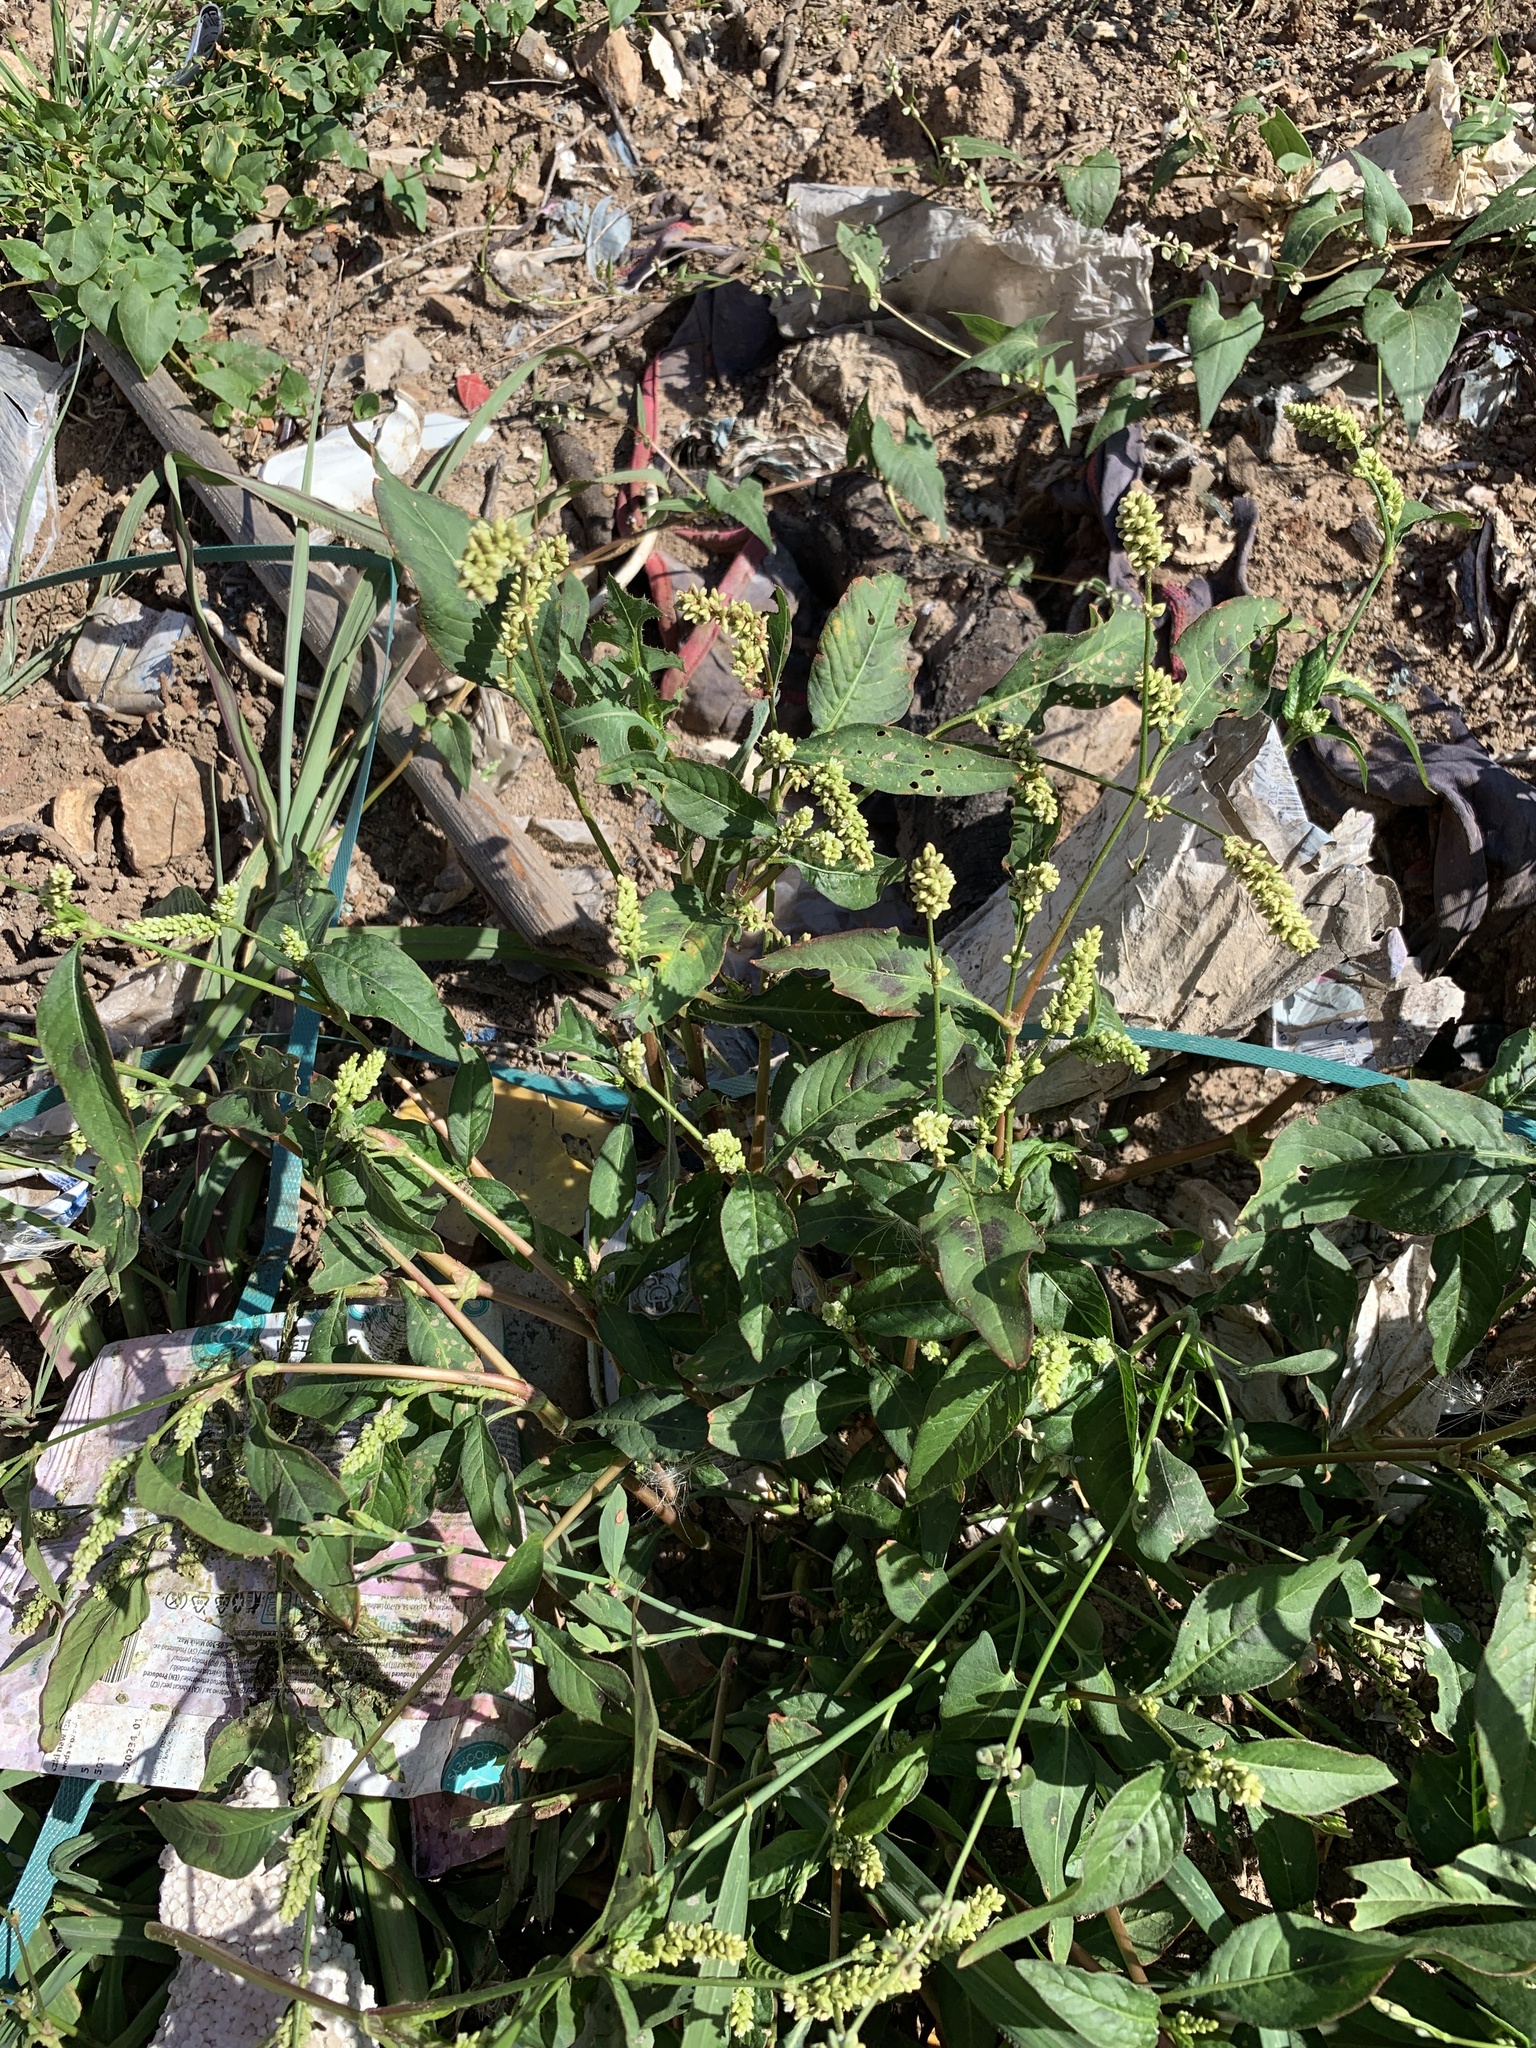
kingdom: Plantae
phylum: Tracheophyta
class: Magnoliopsida
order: Caryophyllales
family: Polygonaceae
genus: Persicaria
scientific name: Persicaria lapathifolia
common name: Curlytop knotweed
